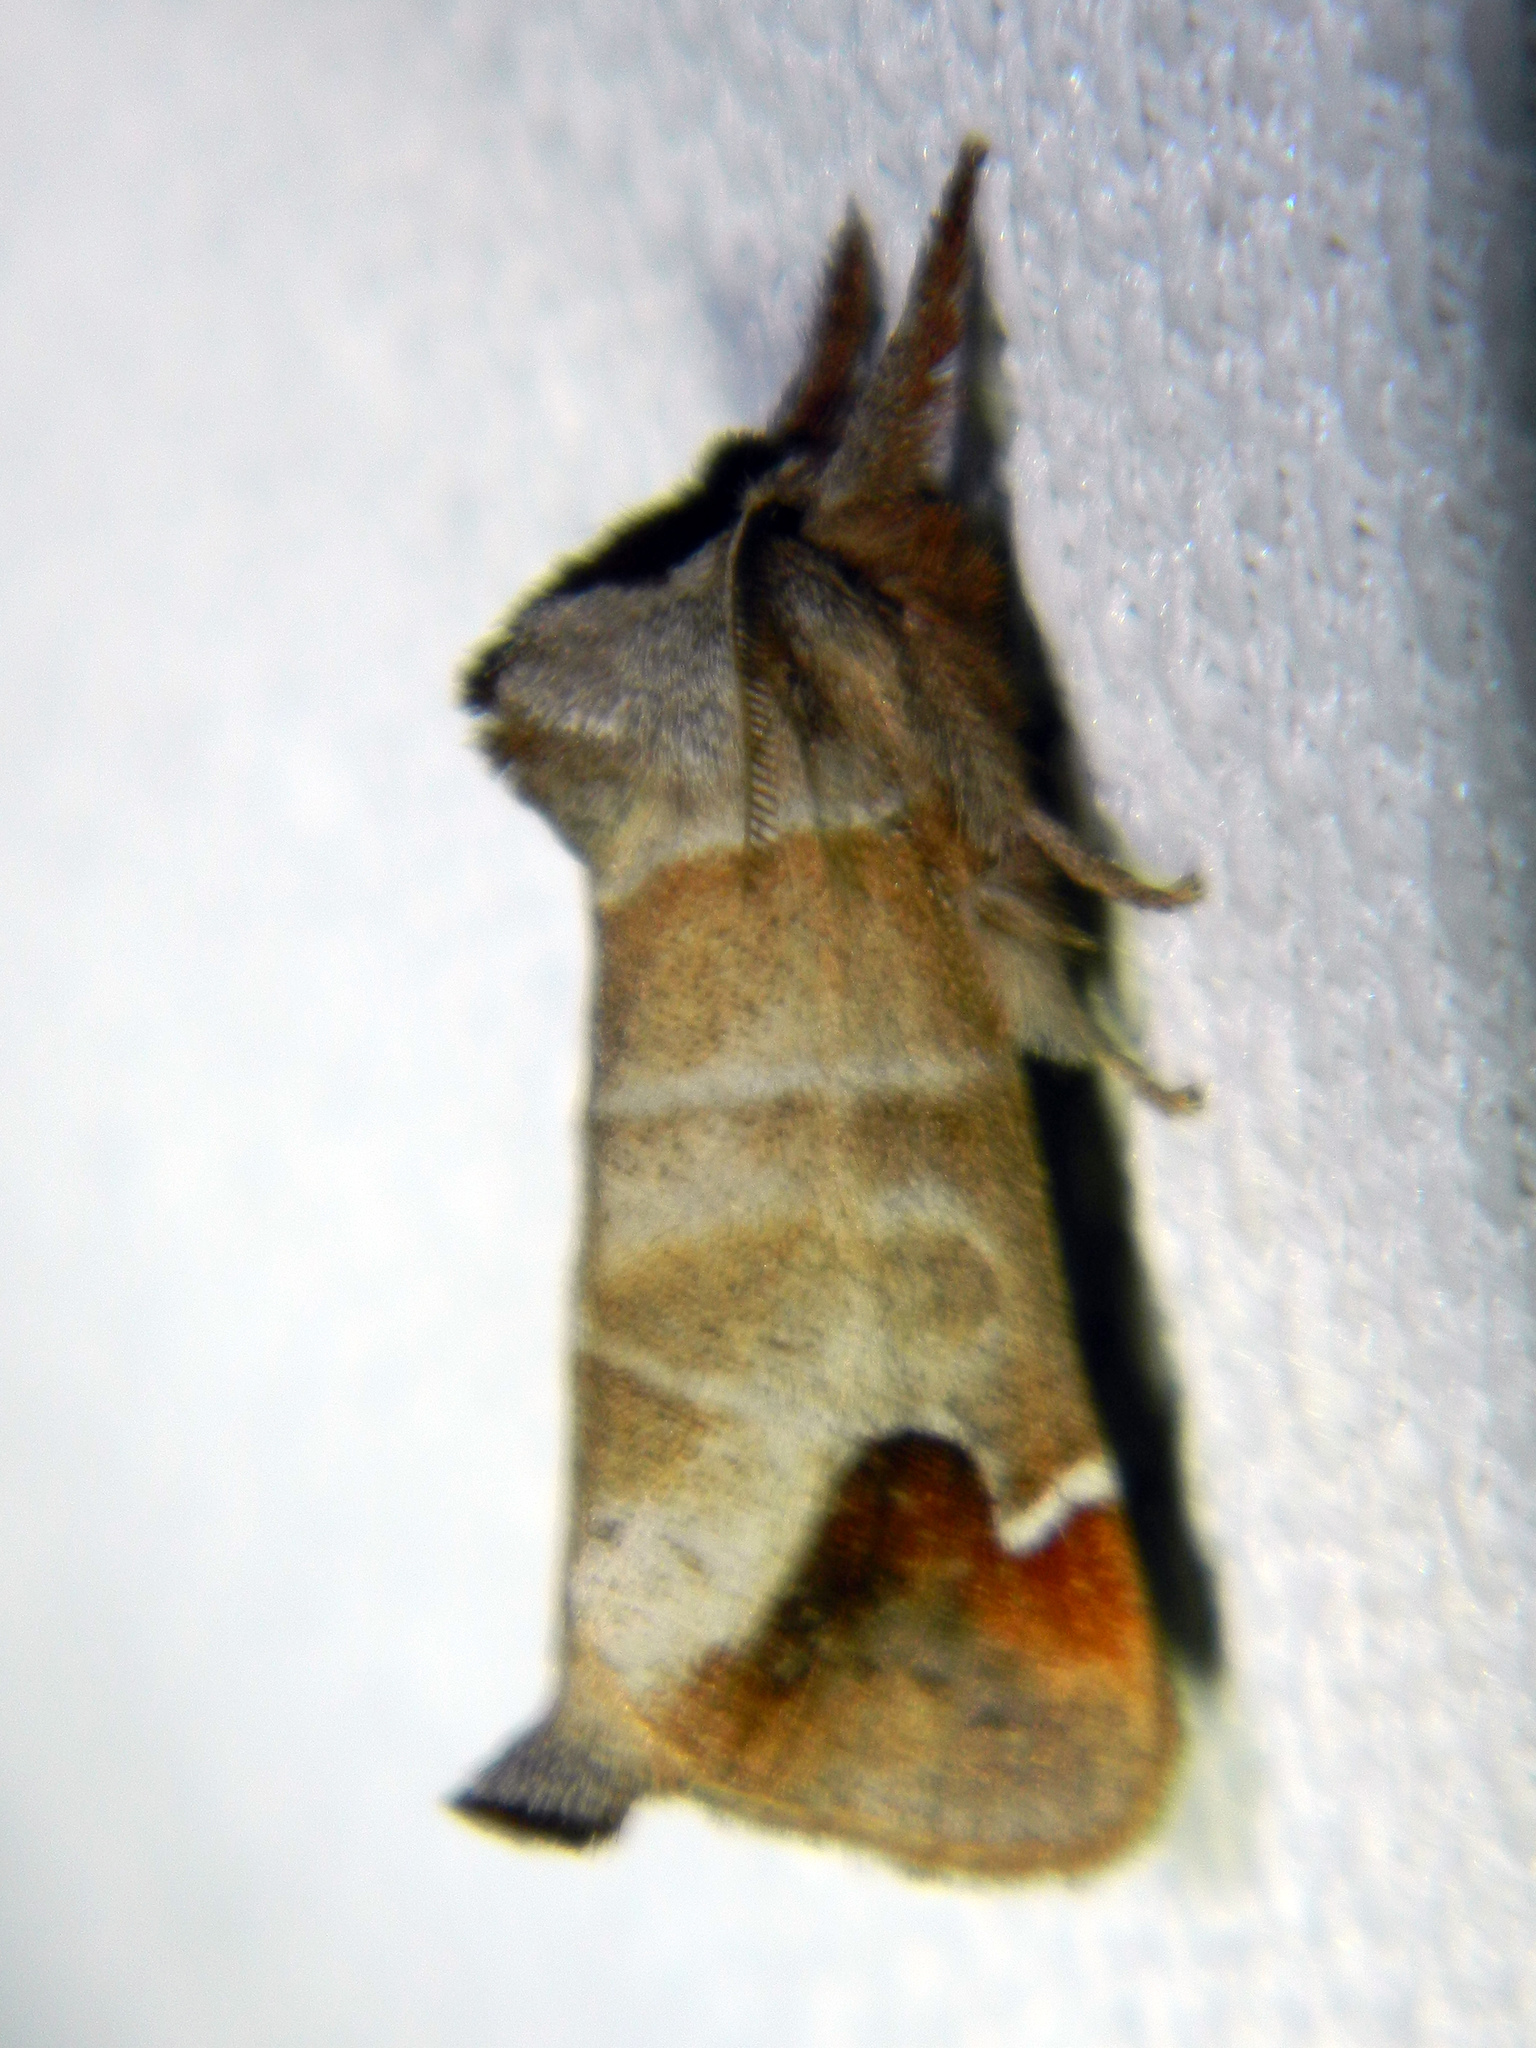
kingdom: Animalia
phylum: Arthropoda
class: Insecta
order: Lepidoptera
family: Notodontidae
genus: Clostera
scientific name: Clostera albosigma
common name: Sigmoid prominent
